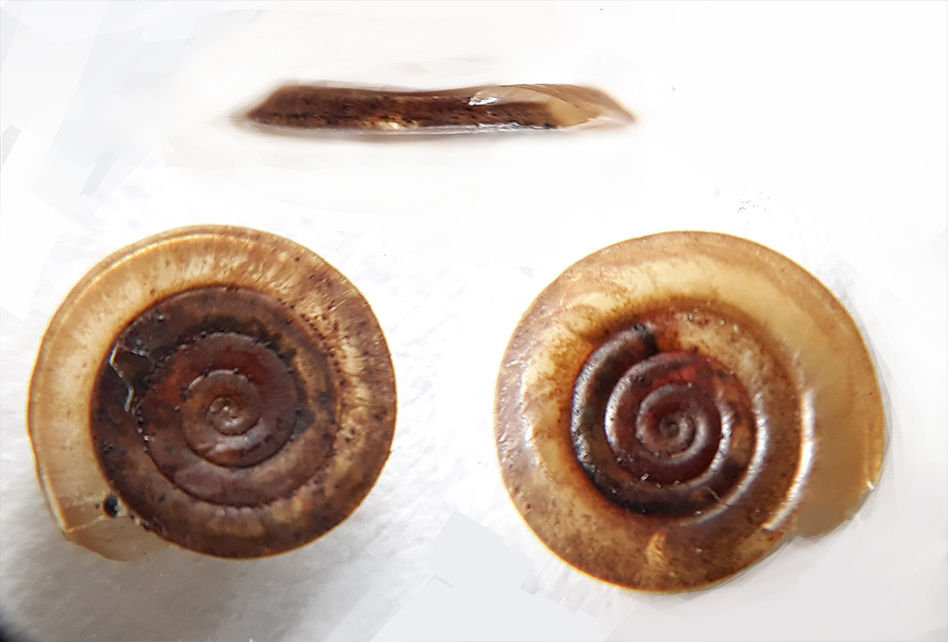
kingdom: Animalia
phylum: Mollusca
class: Gastropoda
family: Planorbidae
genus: Anisus
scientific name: Anisus vortex
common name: Whirlpool ram's horn snail
